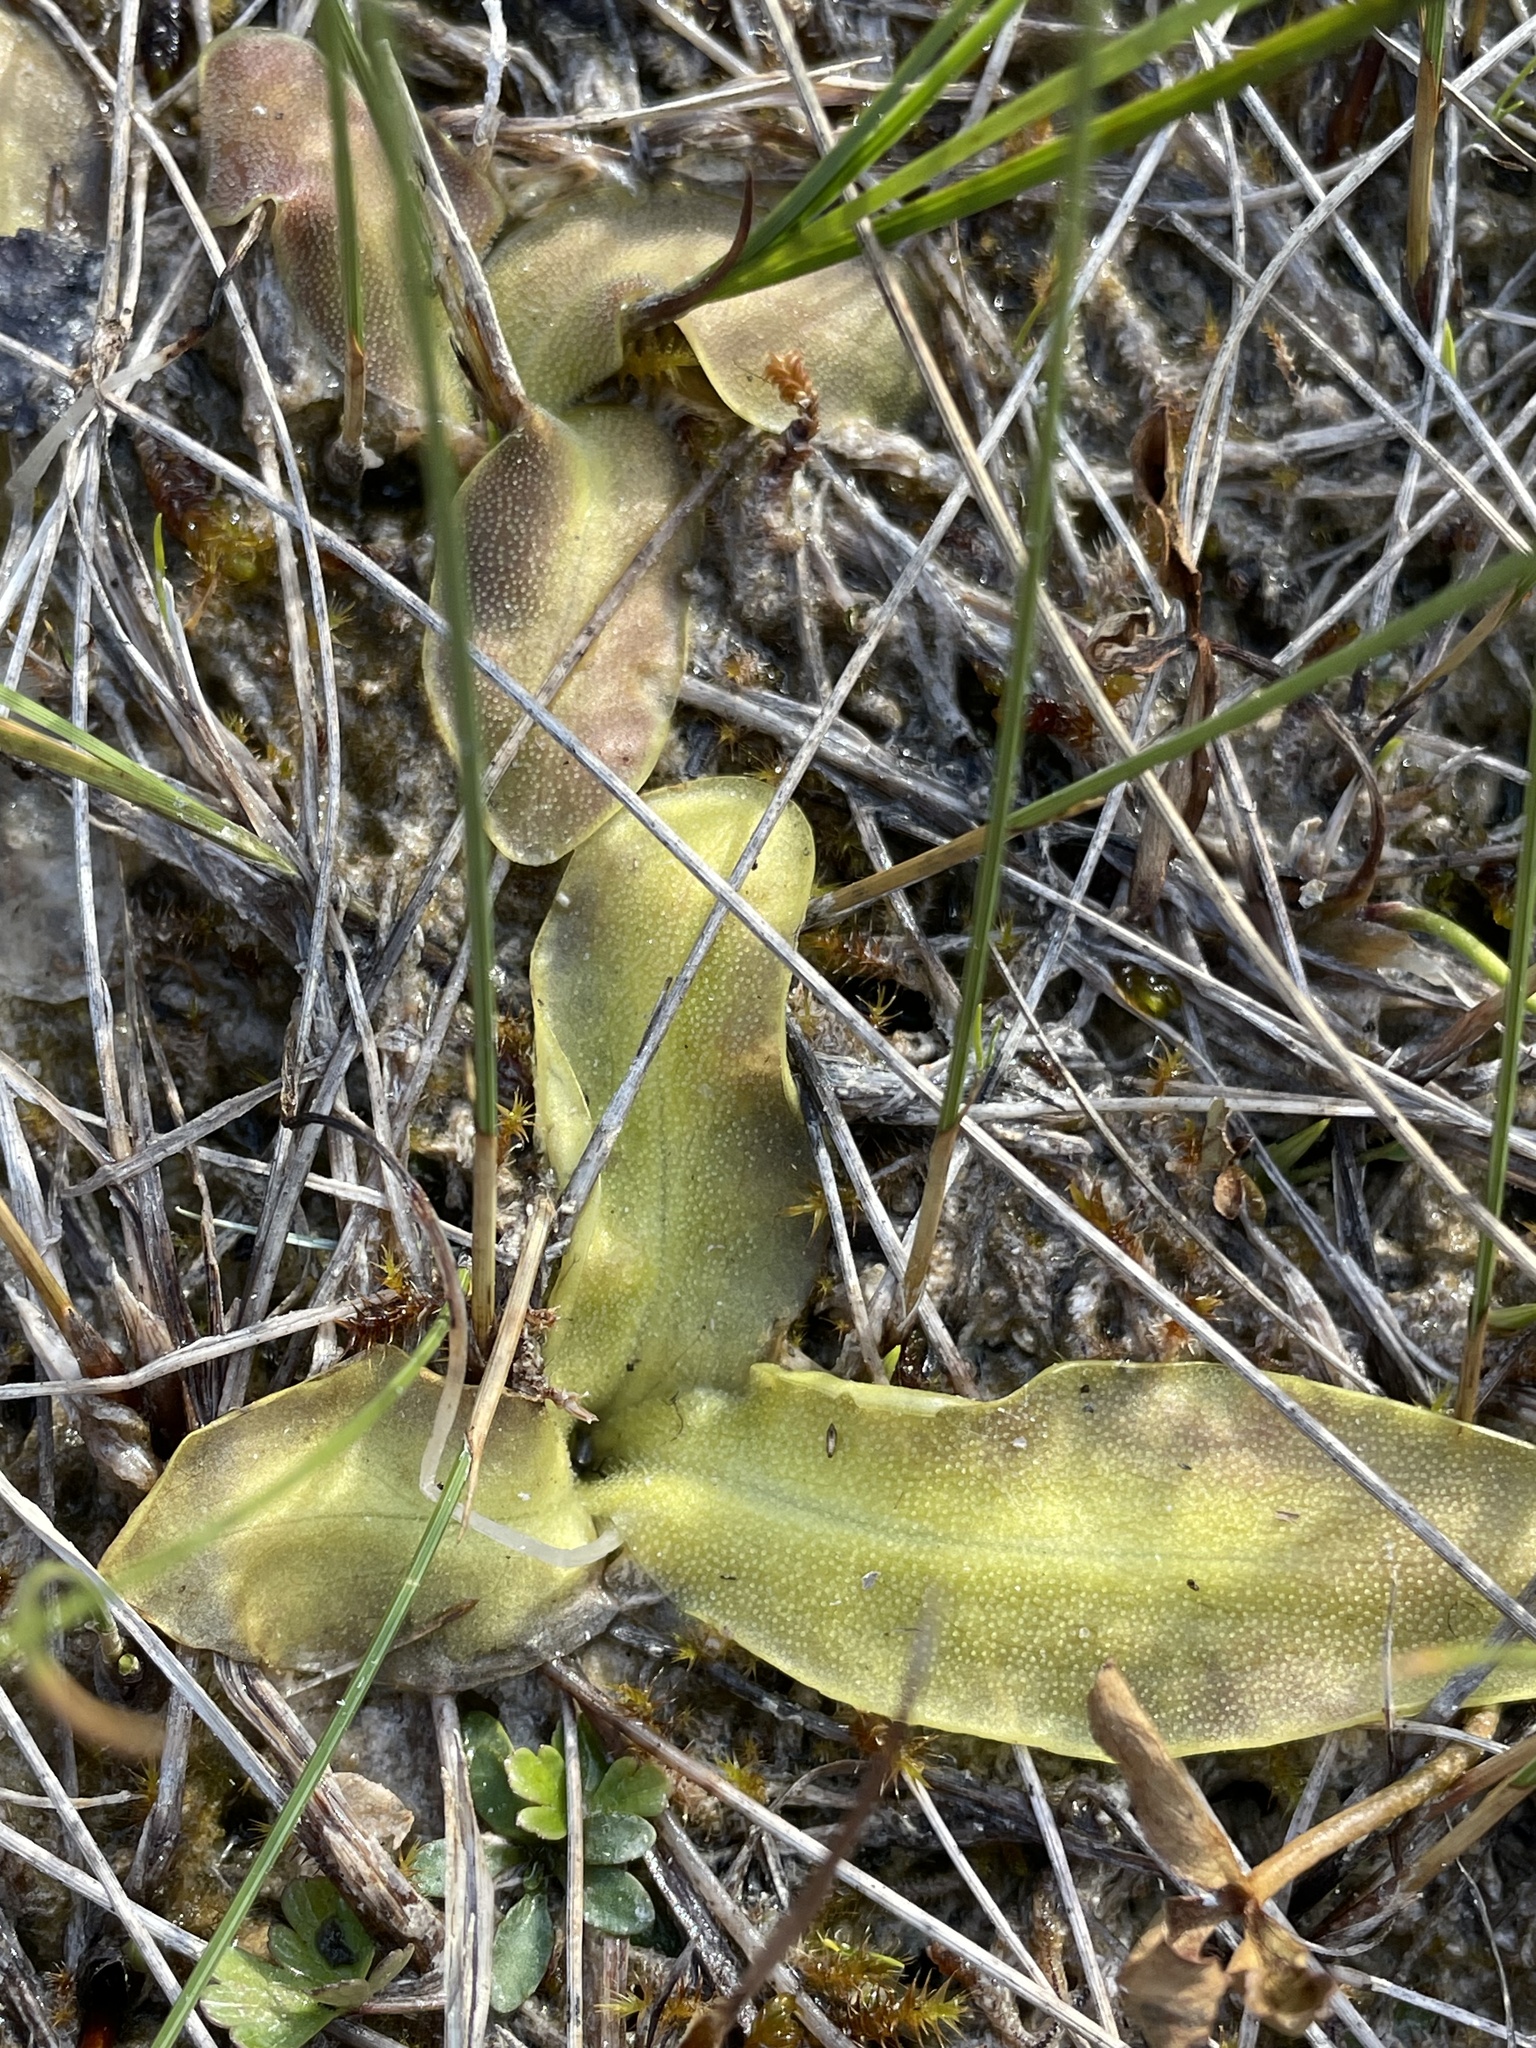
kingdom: Plantae
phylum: Tracheophyta
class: Magnoliopsida
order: Lamiales
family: Lentibulariaceae
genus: Pinguicula
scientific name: Pinguicula vulgaris
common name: Common butterwort
